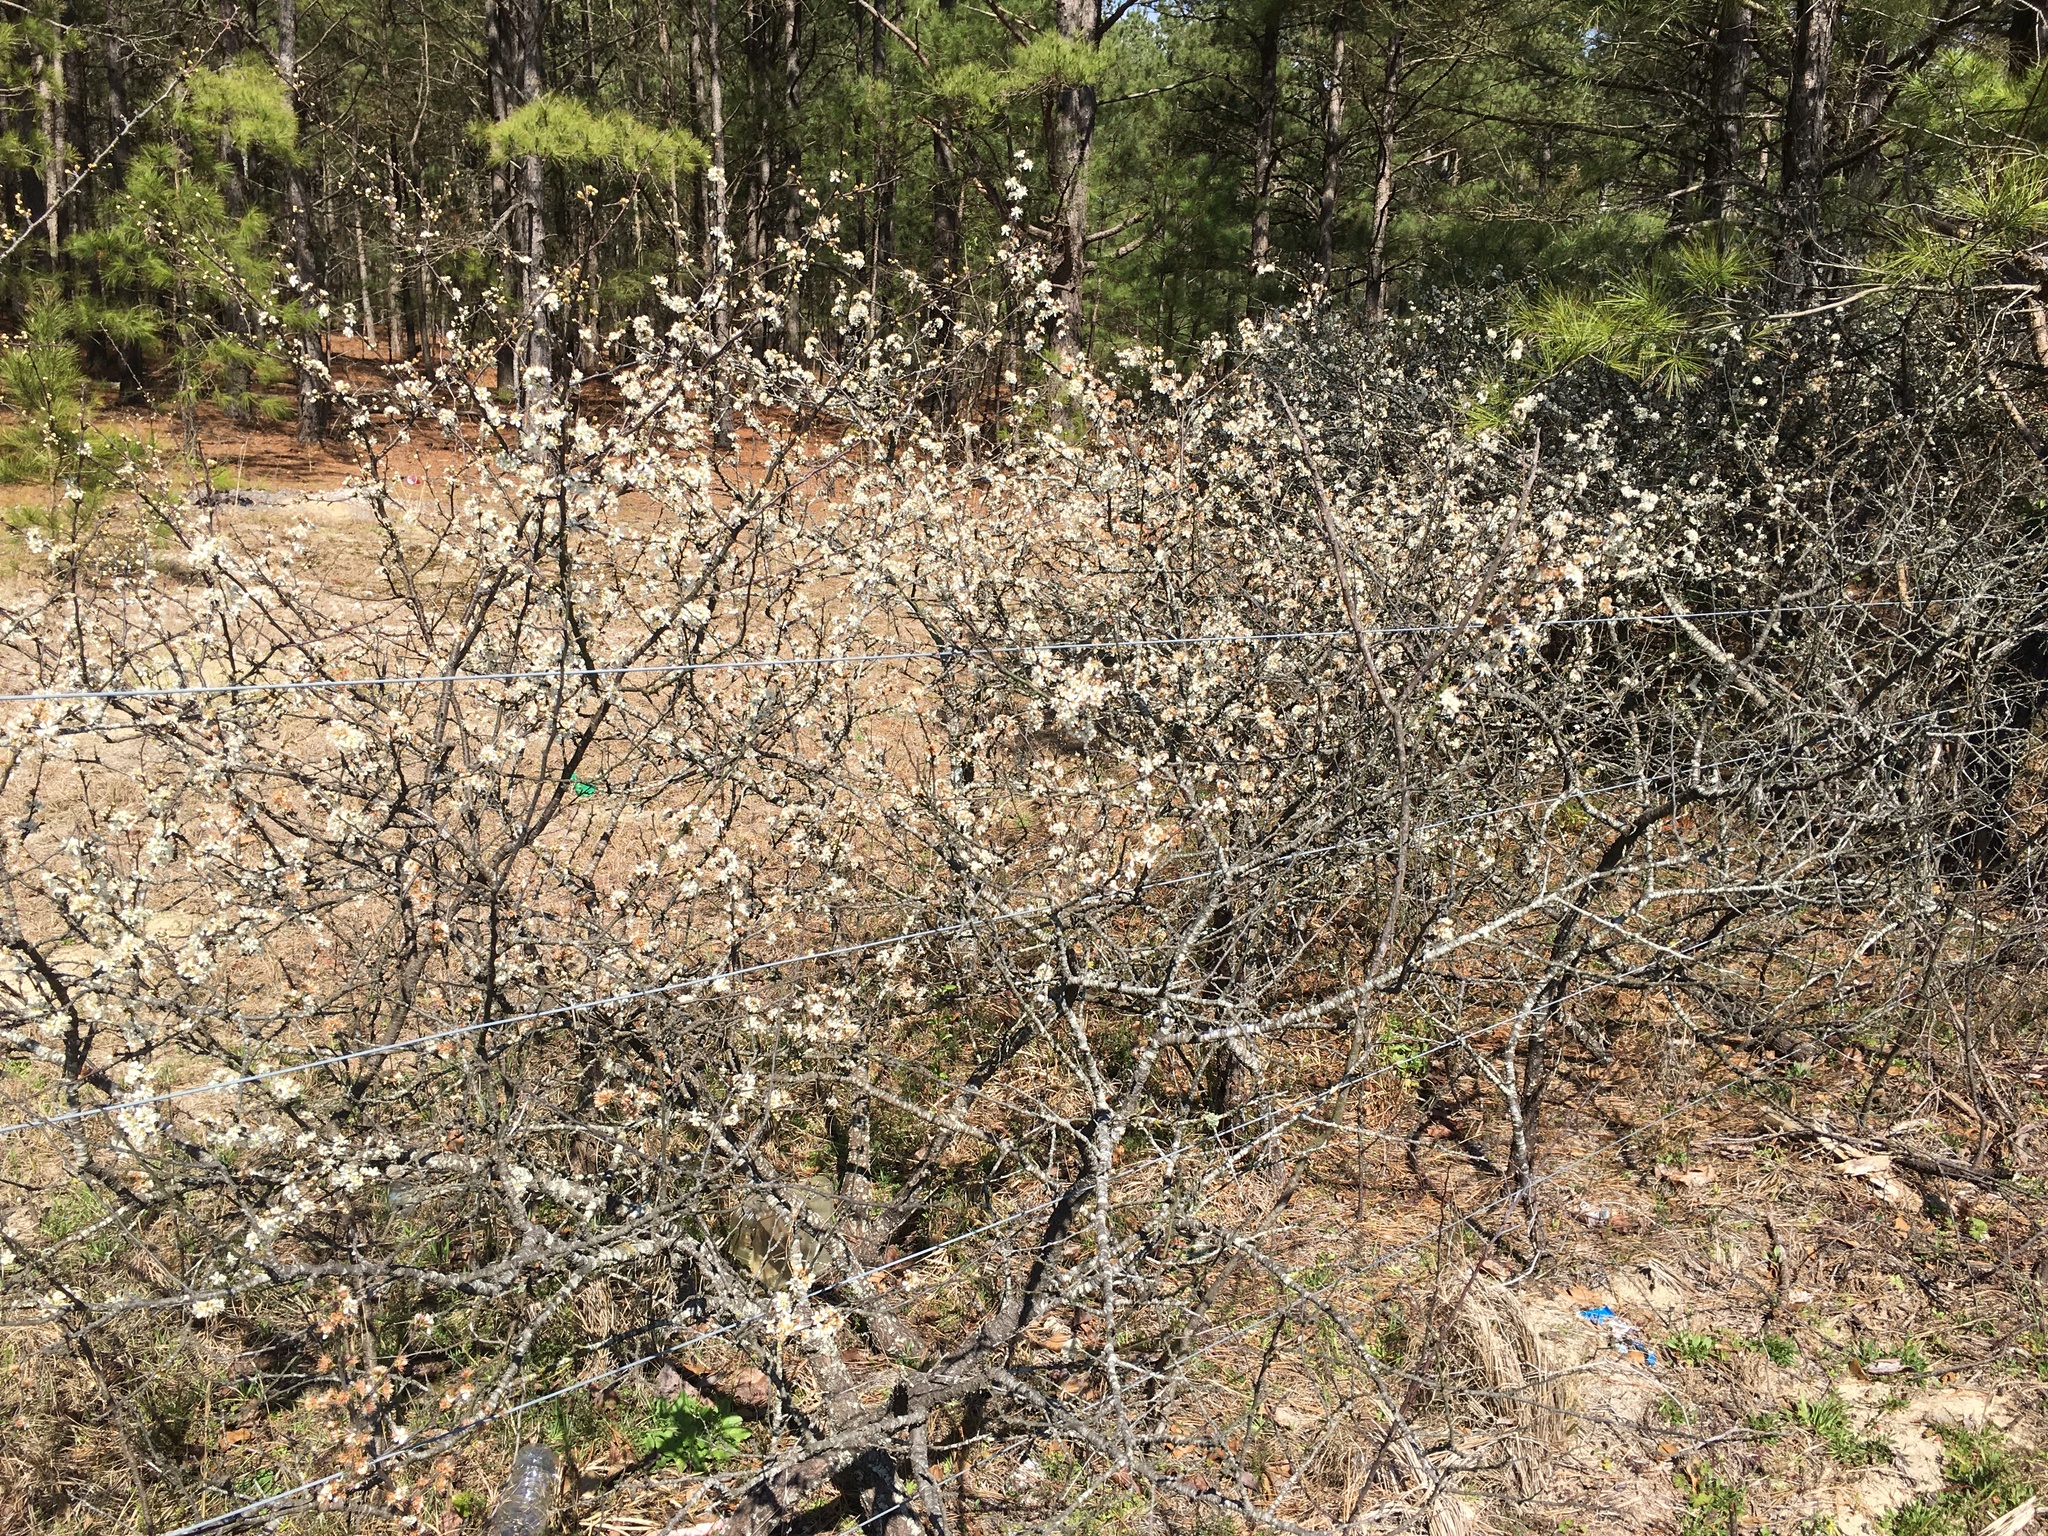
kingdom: Plantae
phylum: Tracheophyta
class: Magnoliopsida
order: Rosales
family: Rosaceae
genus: Prunus
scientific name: Prunus angustifolia
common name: Cherokee plum
